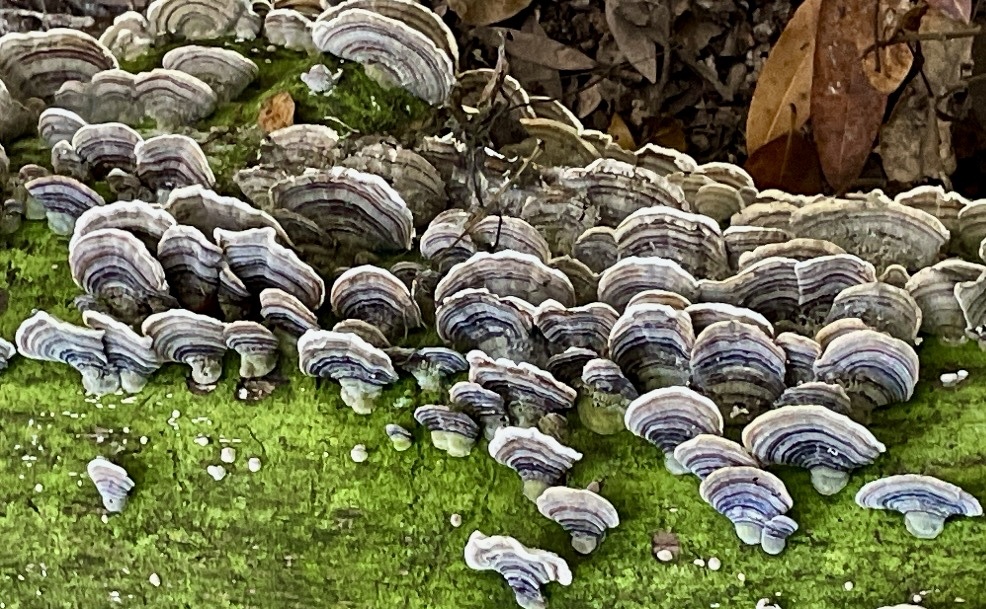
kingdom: Fungi
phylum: Basidiomycota
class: Agaricomycetes
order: Polyporales
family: Polyporaceae
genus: Trametes
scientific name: Trametes versicolor
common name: Turkeytail
